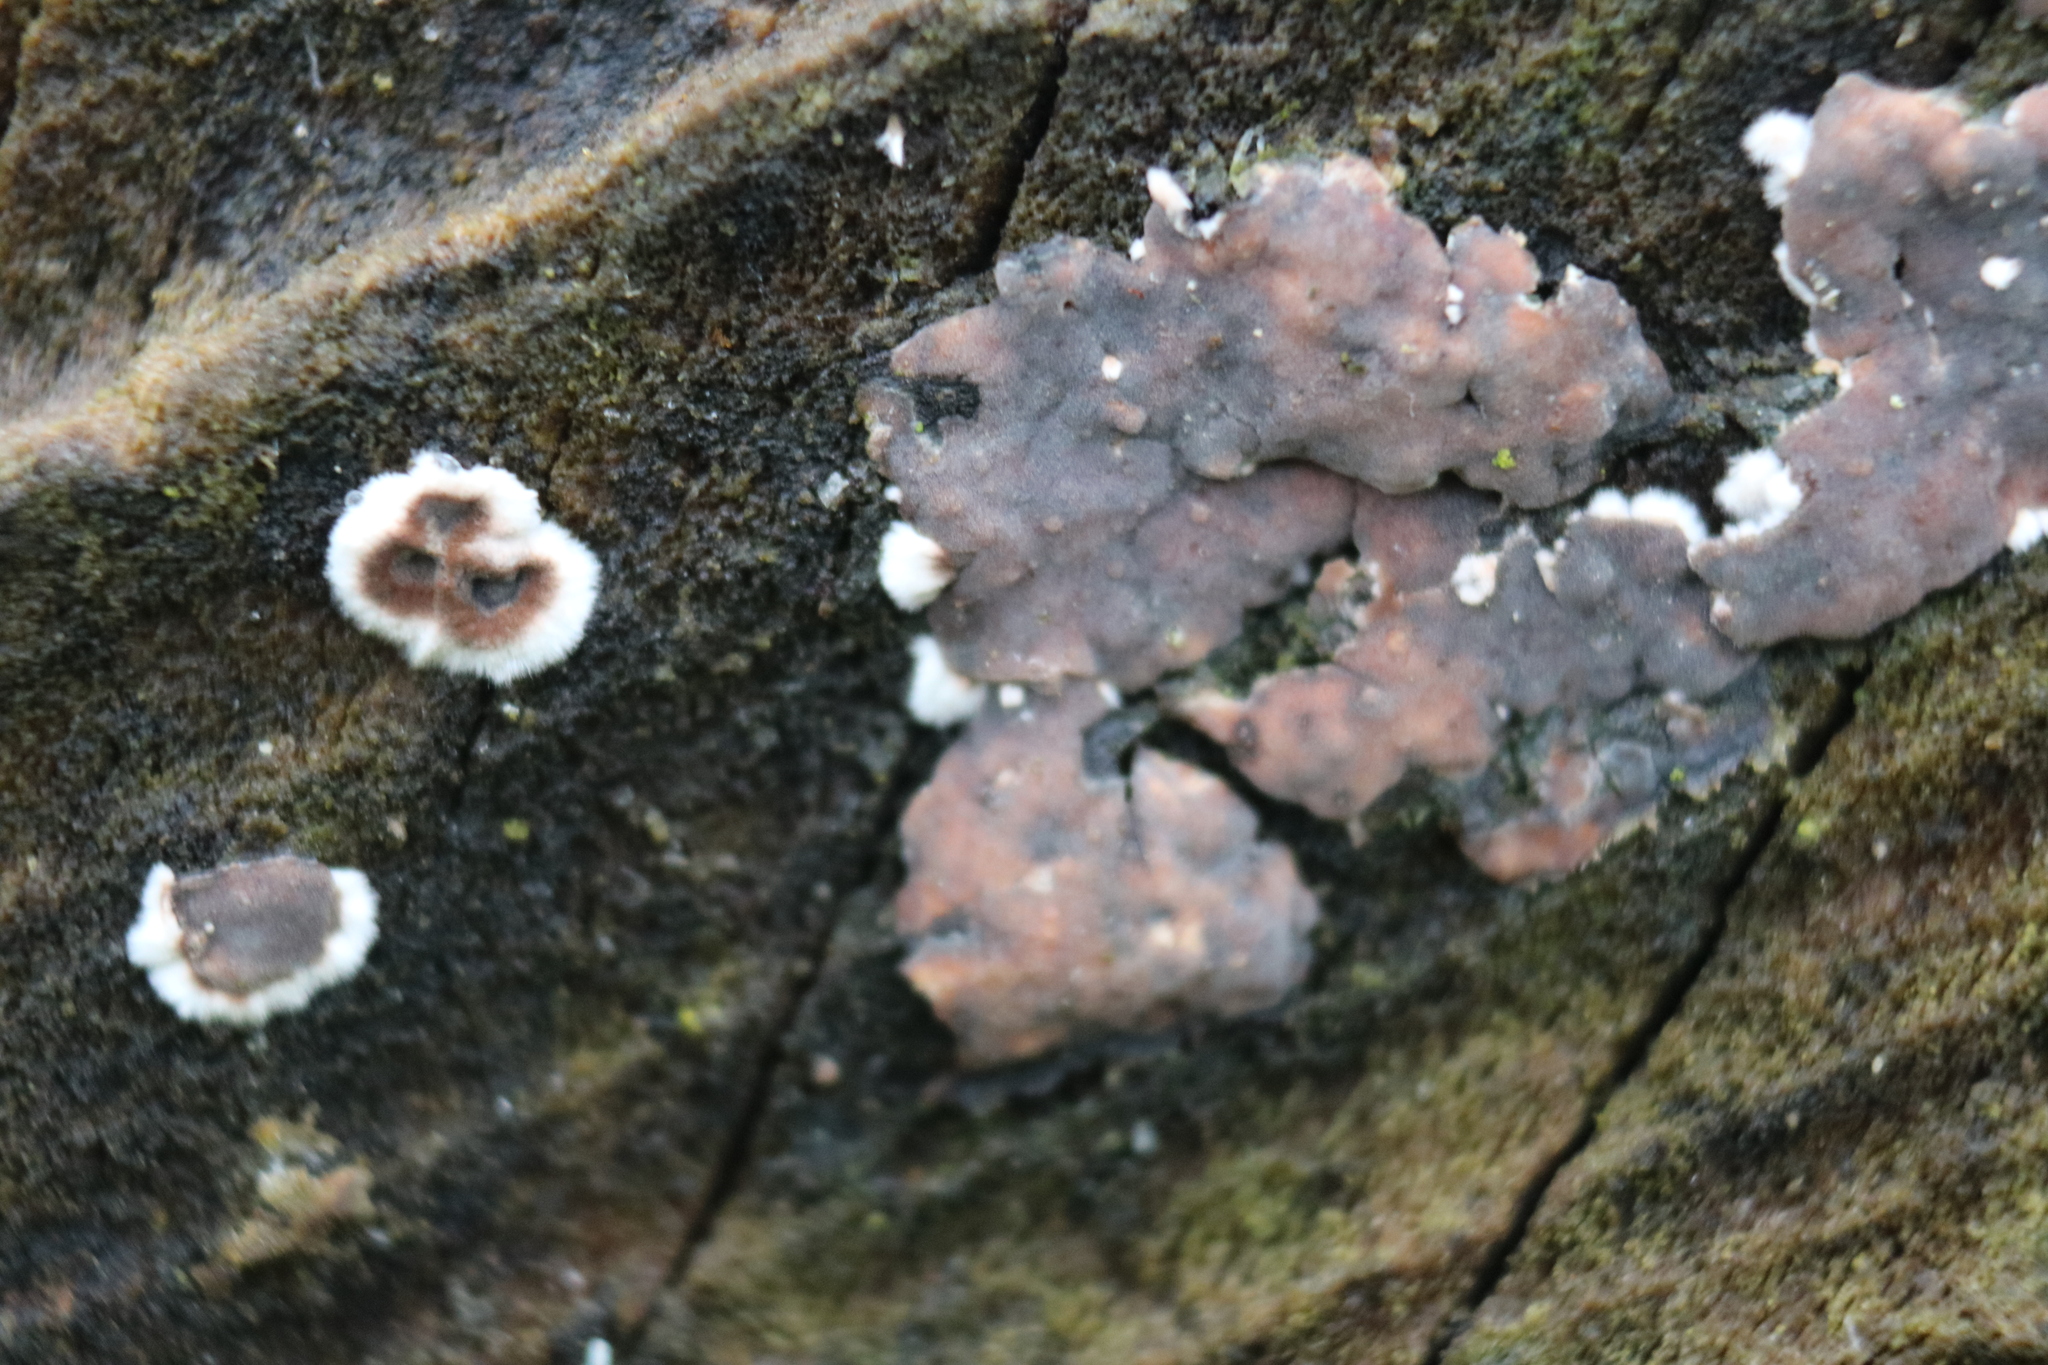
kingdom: Fungi
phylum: Basidiomycota
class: Agaricomycetes
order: Russulales
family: Peniophoraceae
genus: Peniophora
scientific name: Peniophora albobadia
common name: Giraffe spots
